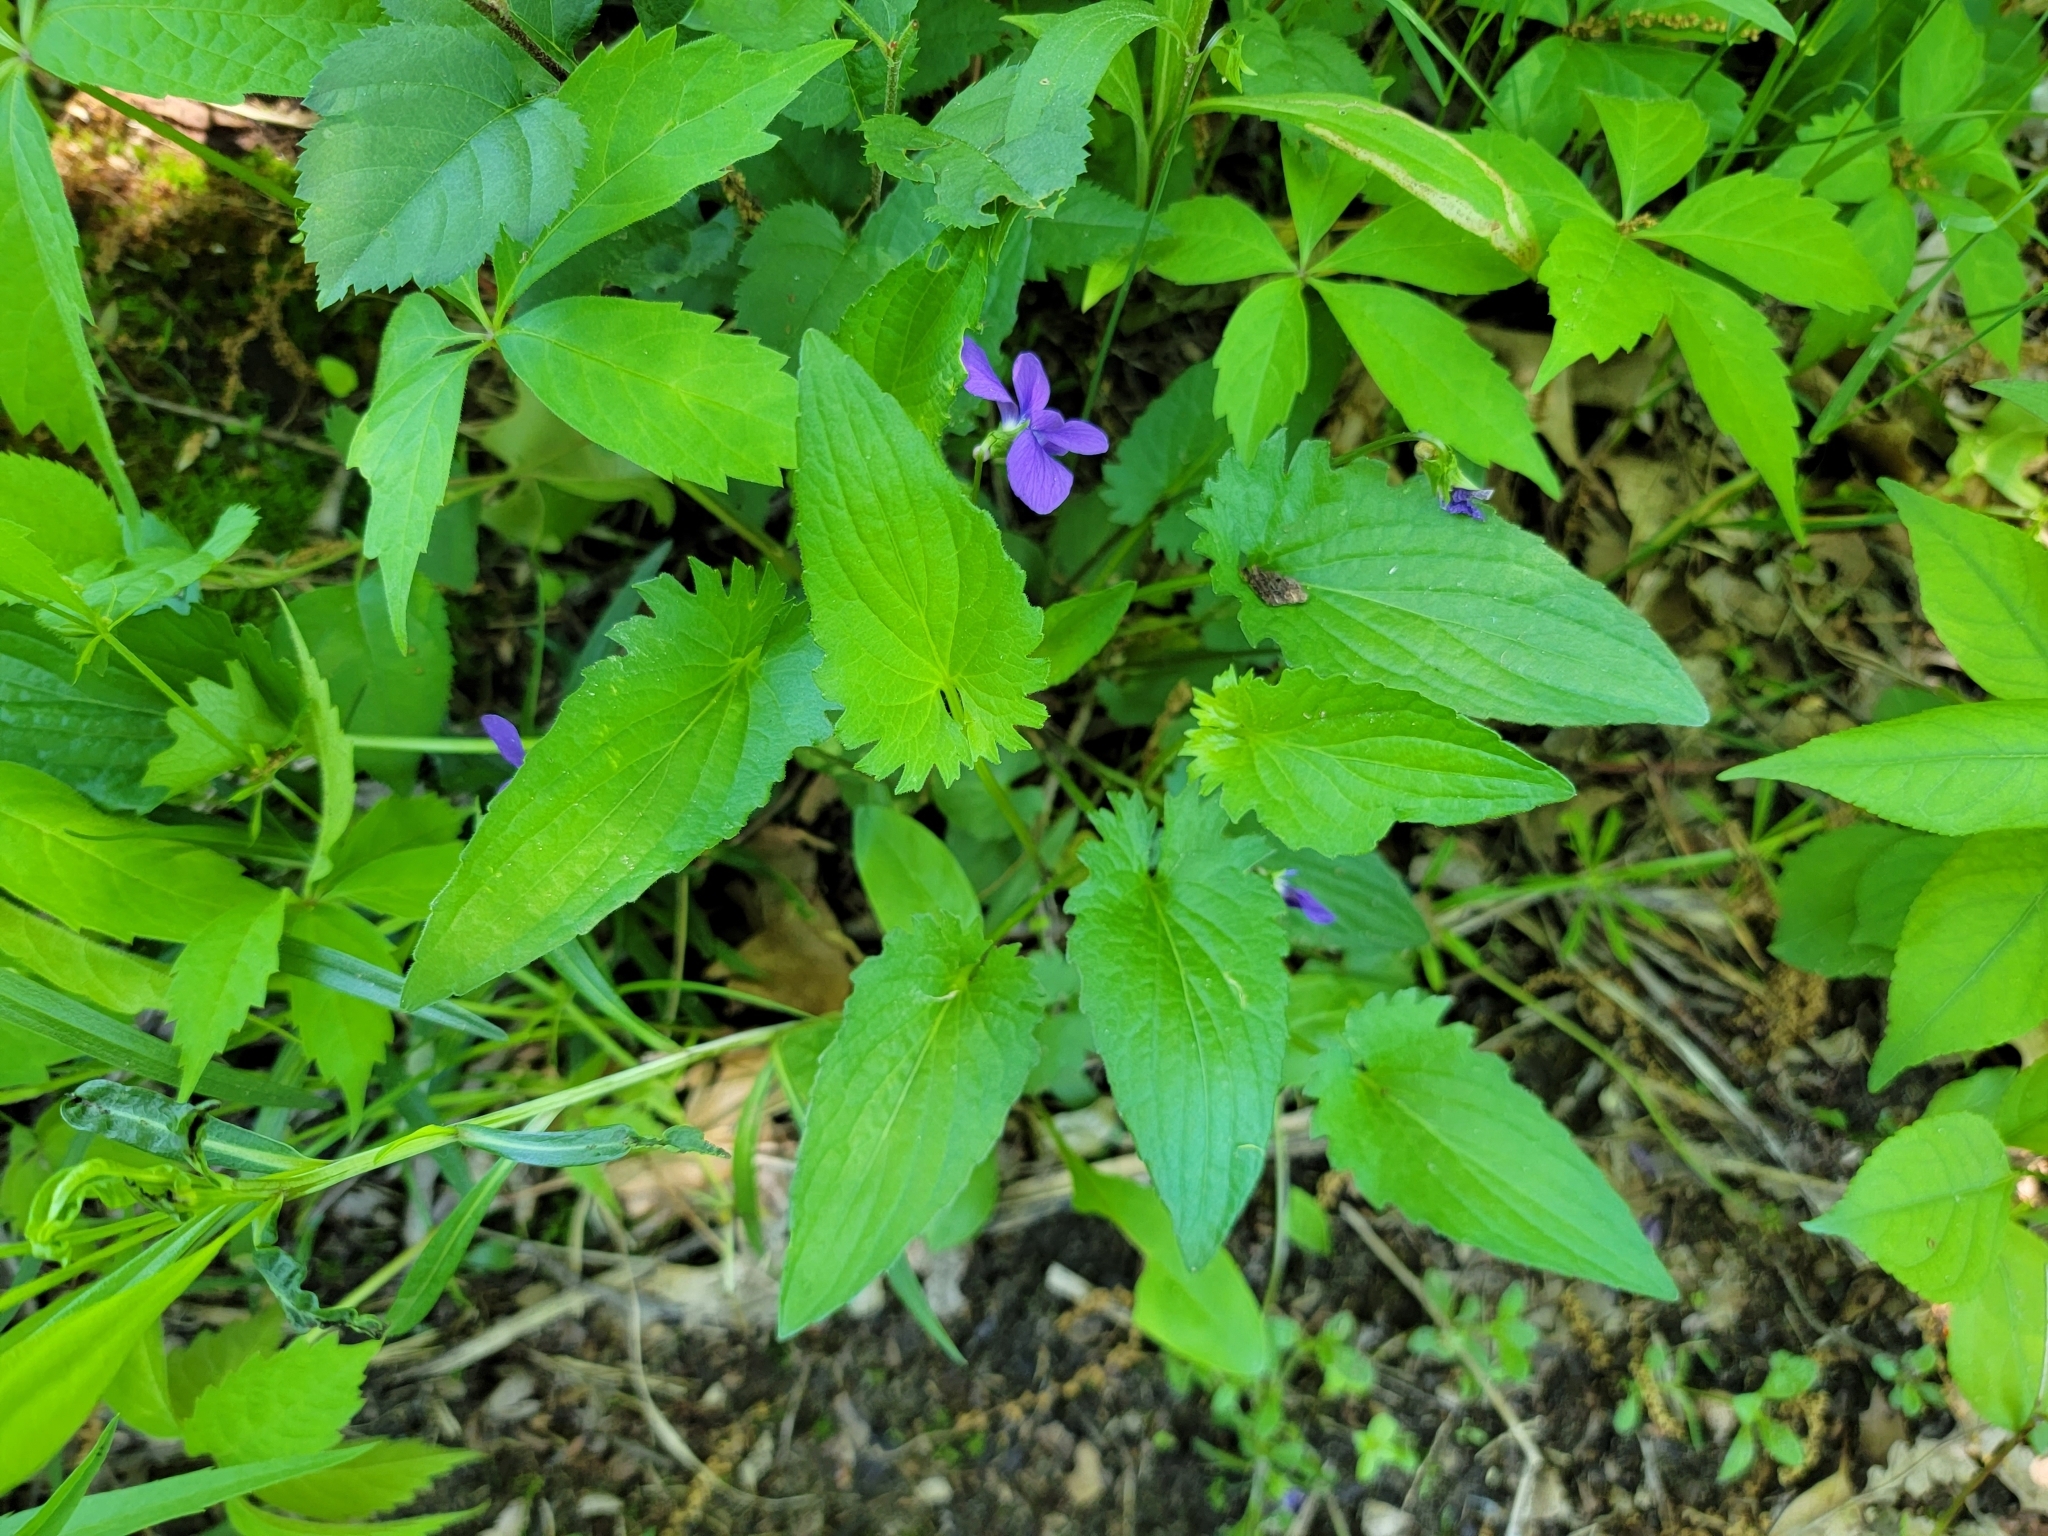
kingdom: Plantae
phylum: Tracheophyta
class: Magnoliopsida
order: Malpighiales
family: Violaceae
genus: Viola
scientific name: Viola sagittata
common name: Arrowhead violet
